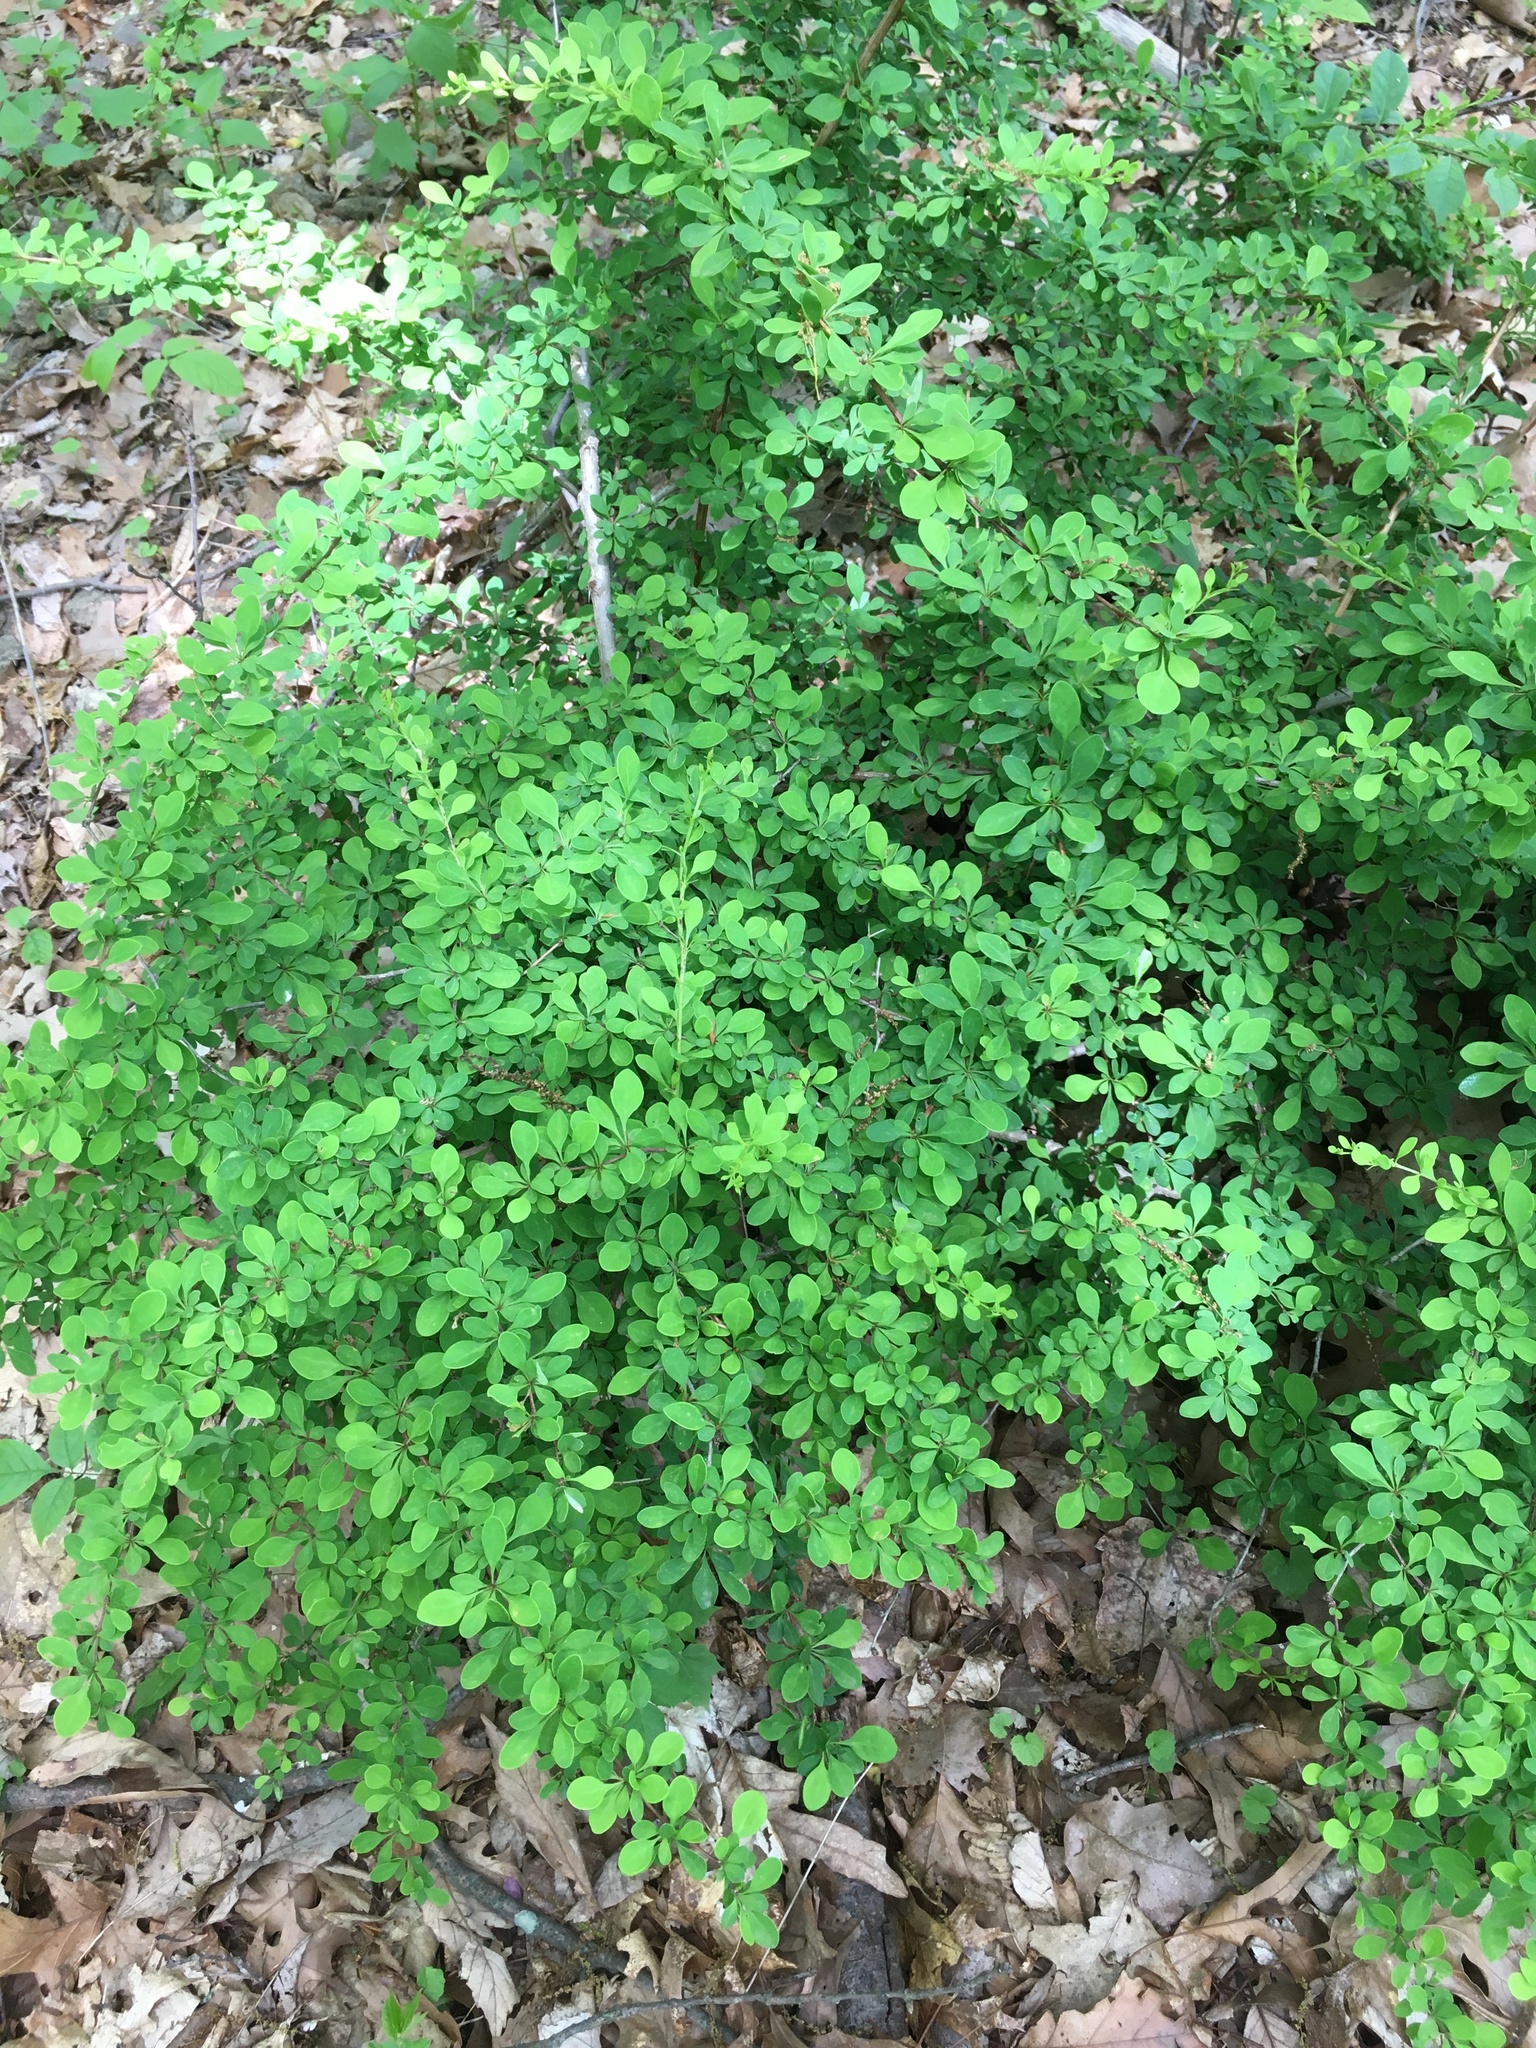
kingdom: Plantae
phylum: Tracheophyta
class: Magnoliopsida
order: Ranunculales
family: Berberidaceae
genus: Berberis
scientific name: Berberis thunbergii
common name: Japanese barberry
